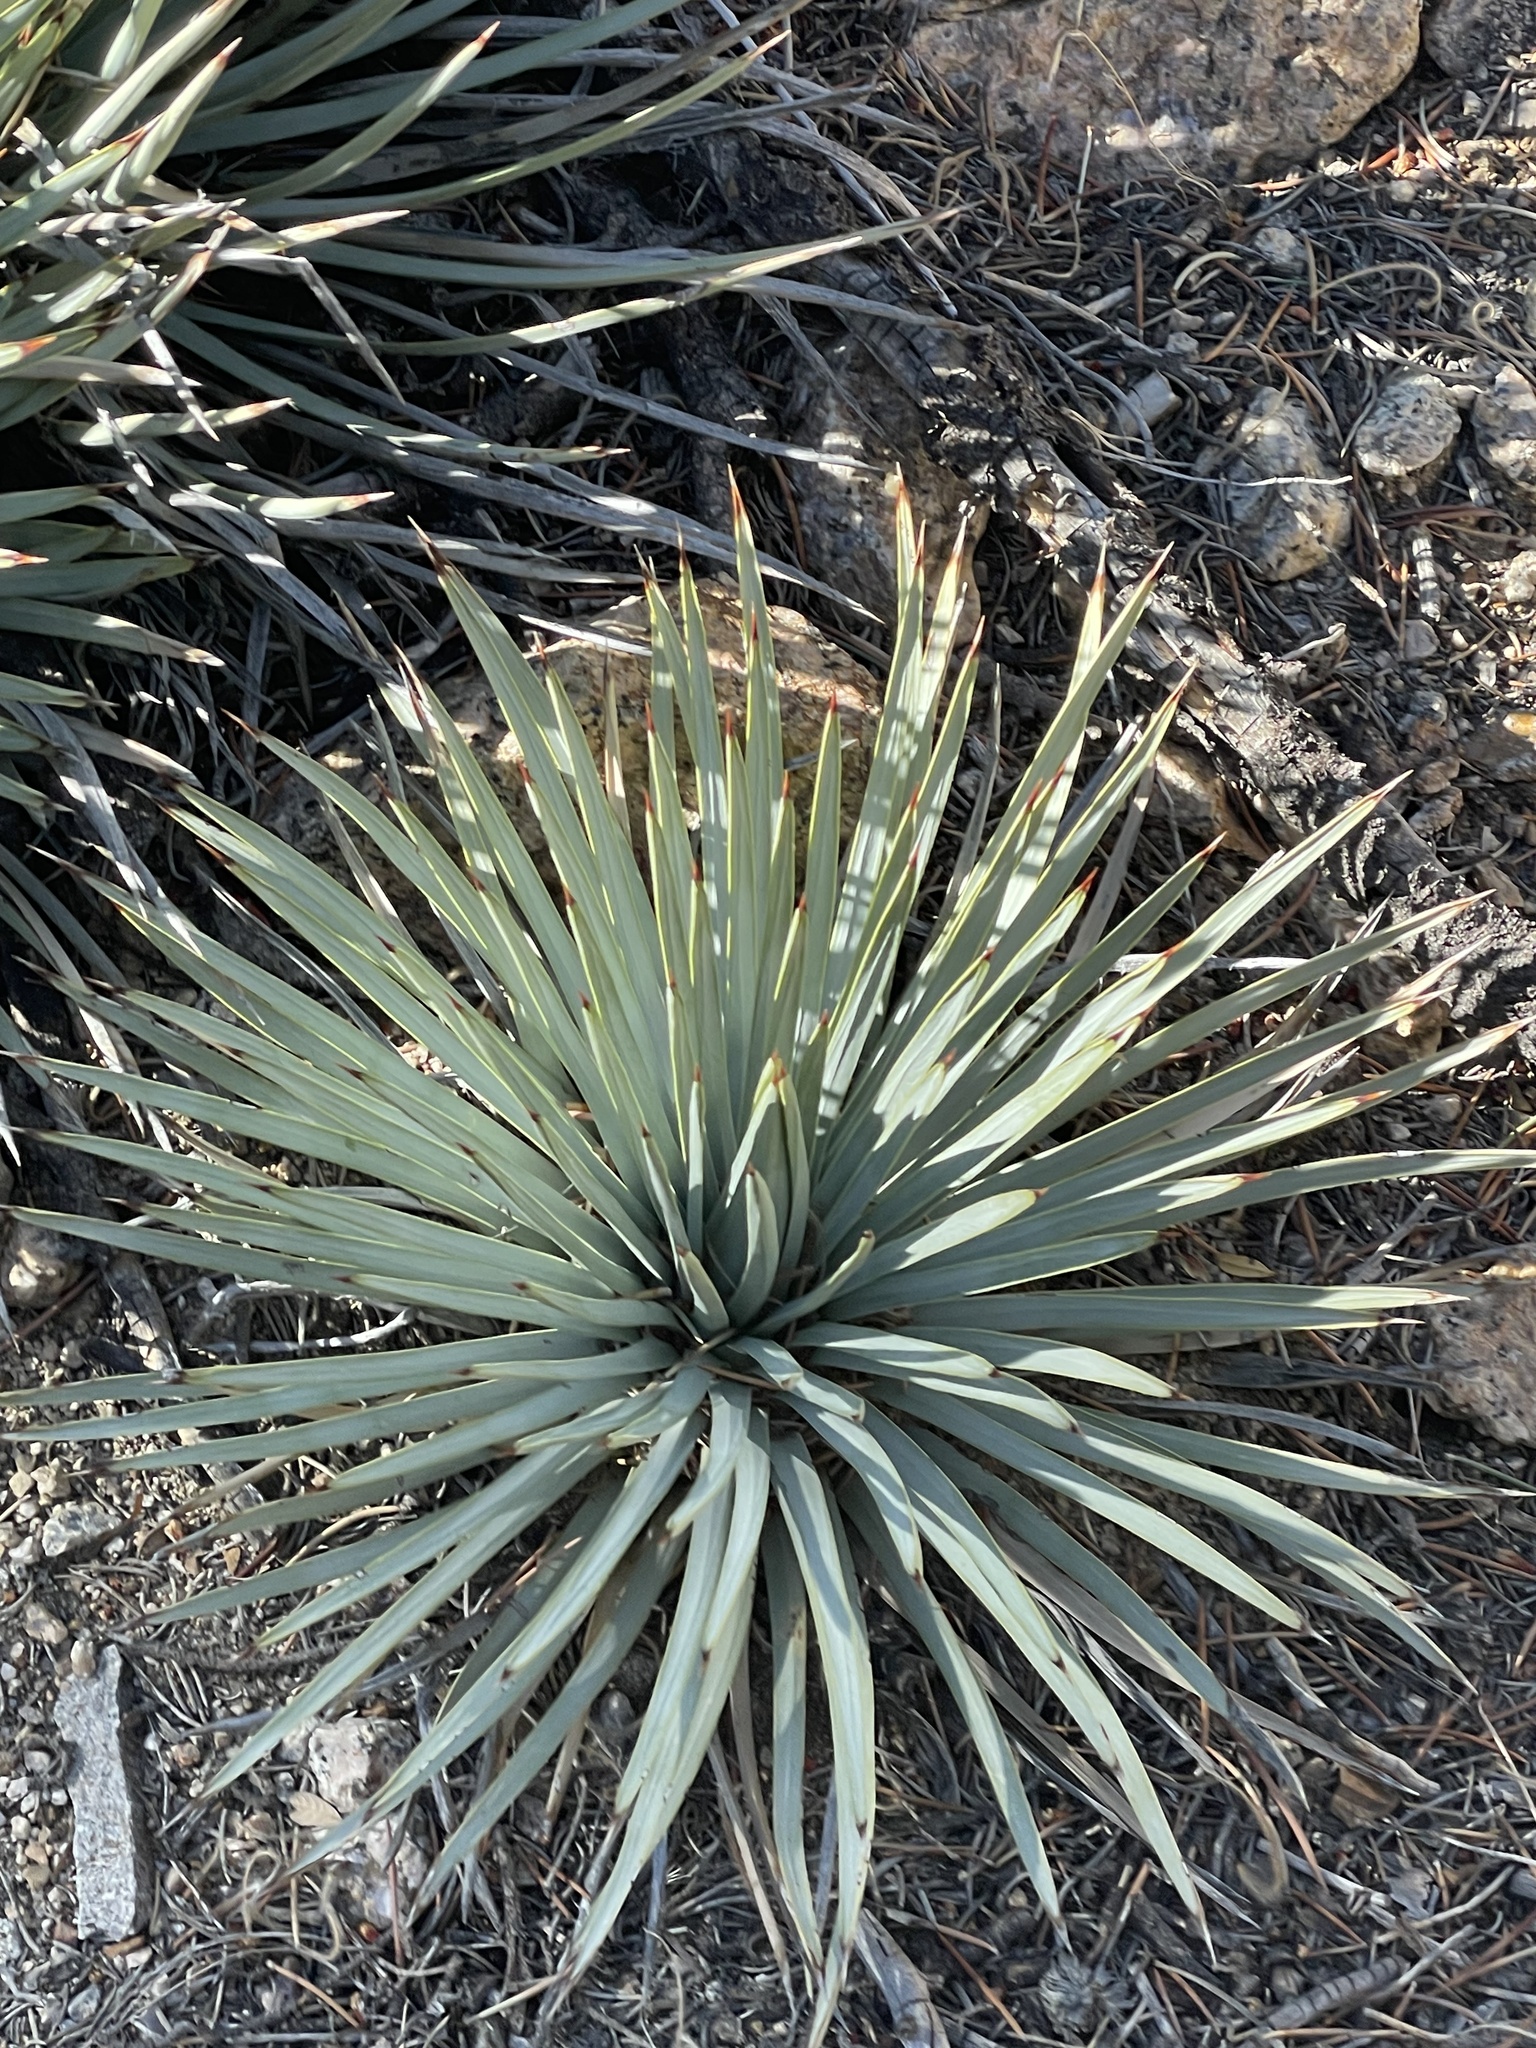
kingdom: Plantae
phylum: Tracheophyta
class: Liliopsida
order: Asparagales
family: Asparagaceae
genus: Hesperoyucca
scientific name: Hesperoyucca whipplei
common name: Our lord's-candle
